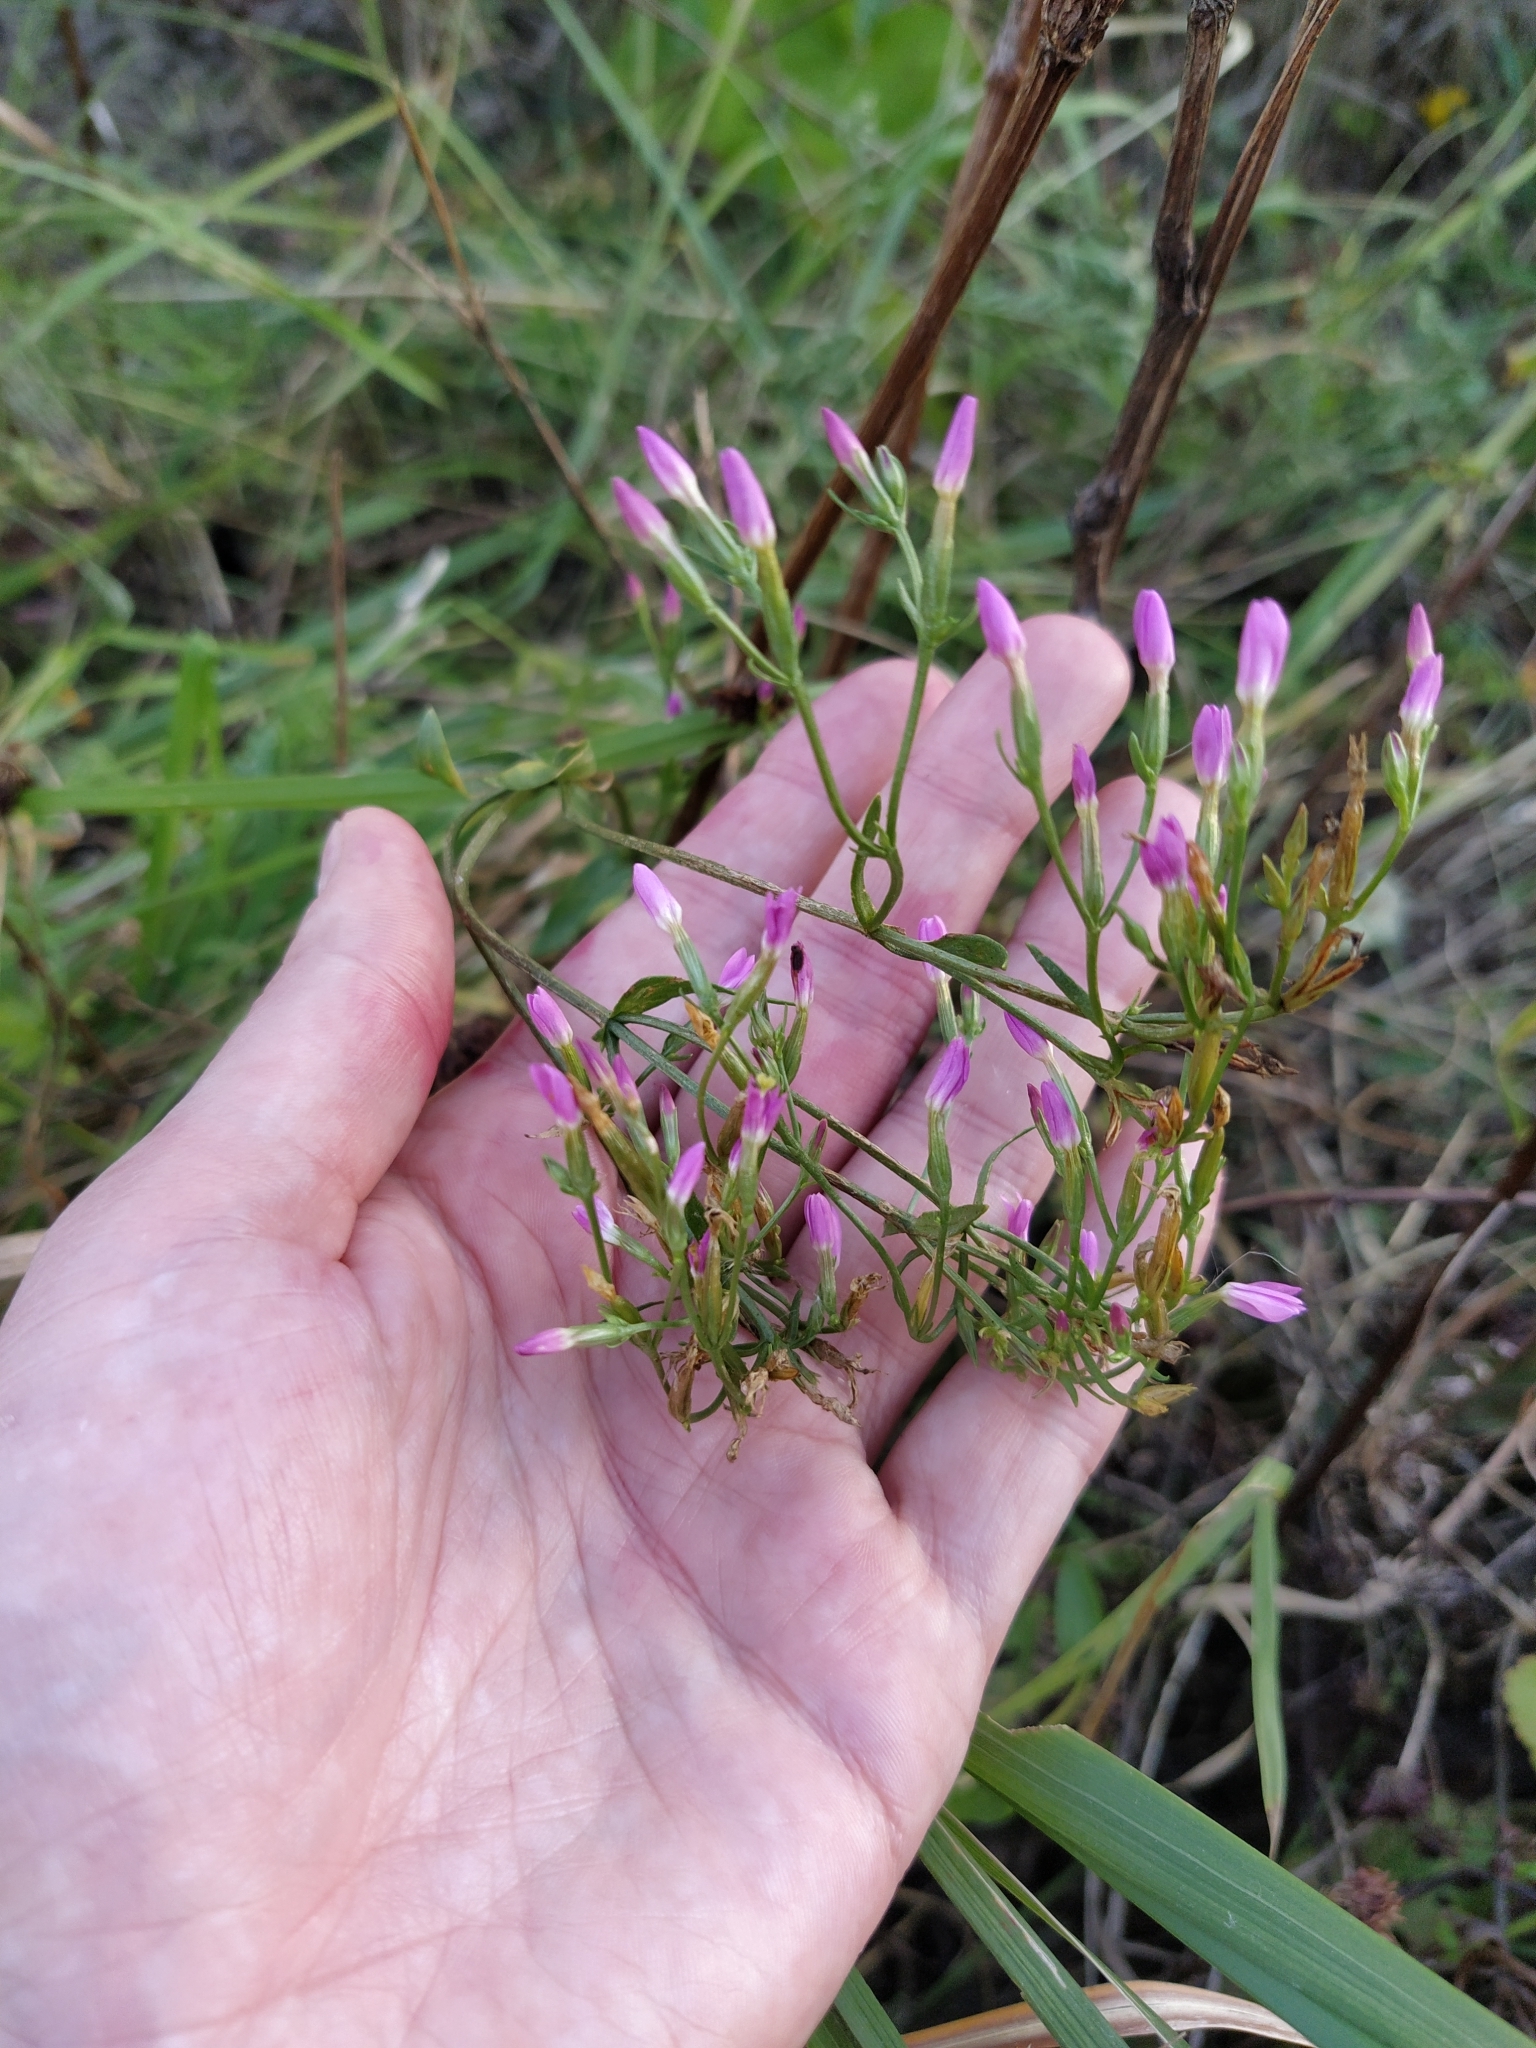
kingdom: Plantae
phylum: Tracheophyta
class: Magnoliopsida
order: Gentianales
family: Gentianaceae
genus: Centaurium
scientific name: Centaurium erythraea
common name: Common centaury
